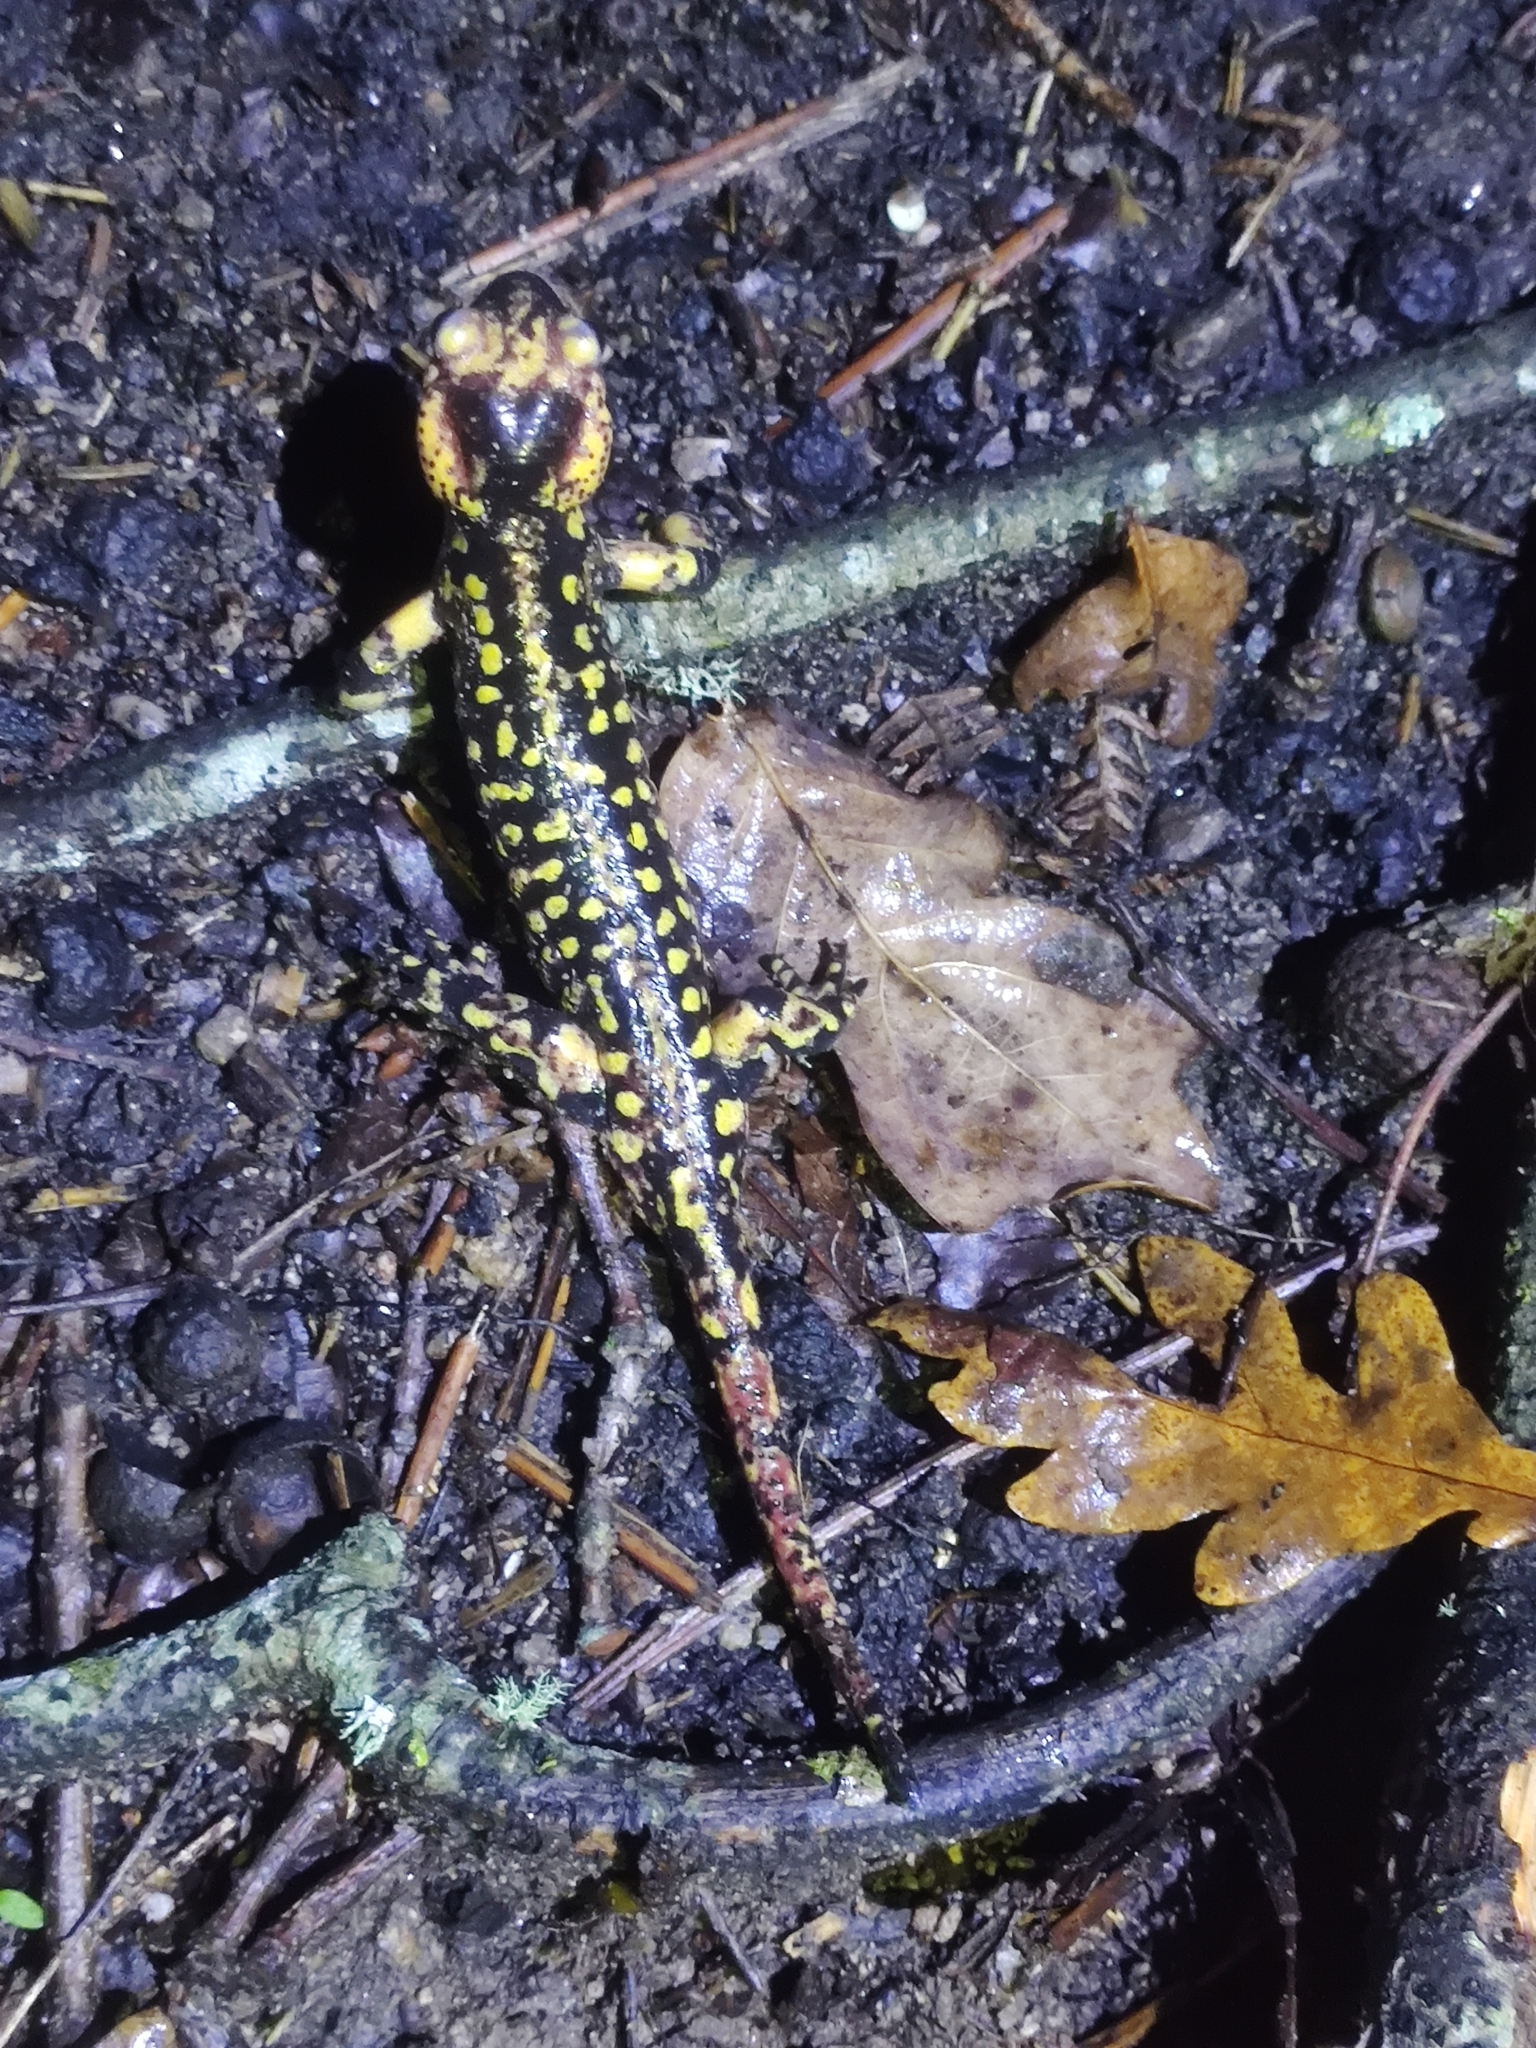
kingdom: Animalia
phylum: Chordata
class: Amphibia
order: Caudata
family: Salamandridae
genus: Salamandra
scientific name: Salamandra salamandra
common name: Fire salamander
